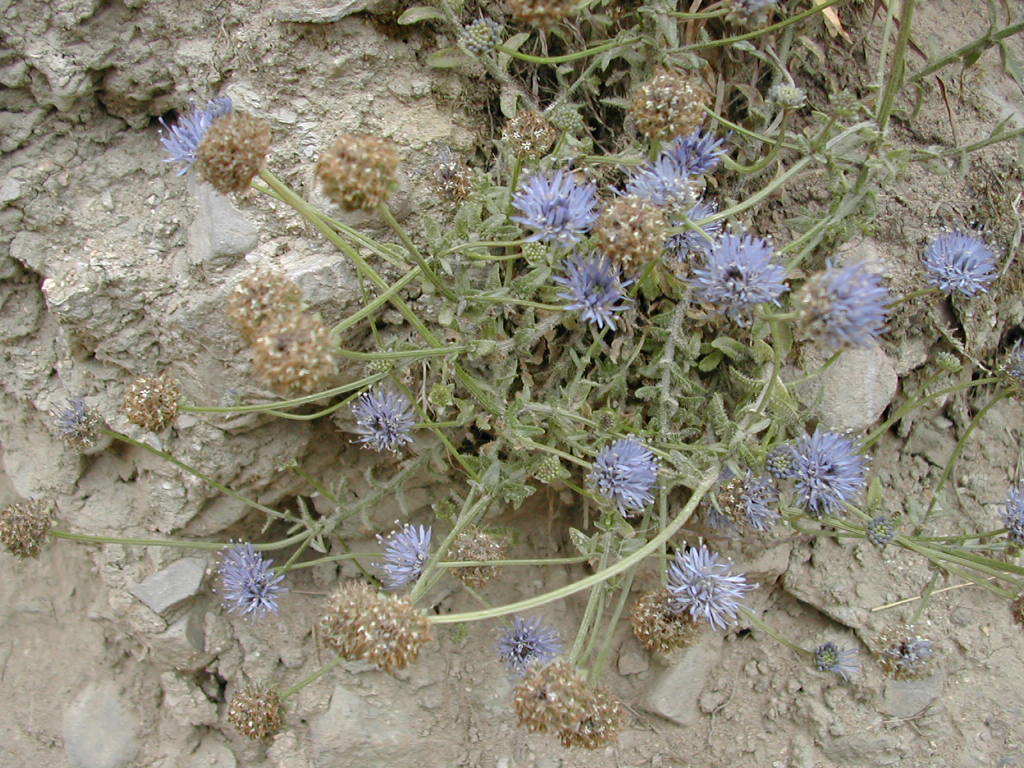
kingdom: Plantae
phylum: Tracheophyta
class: Magnoliopsida
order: Asterales
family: Campanulaceae
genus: Jasione
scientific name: Jasione montana
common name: Sheep's-bit
